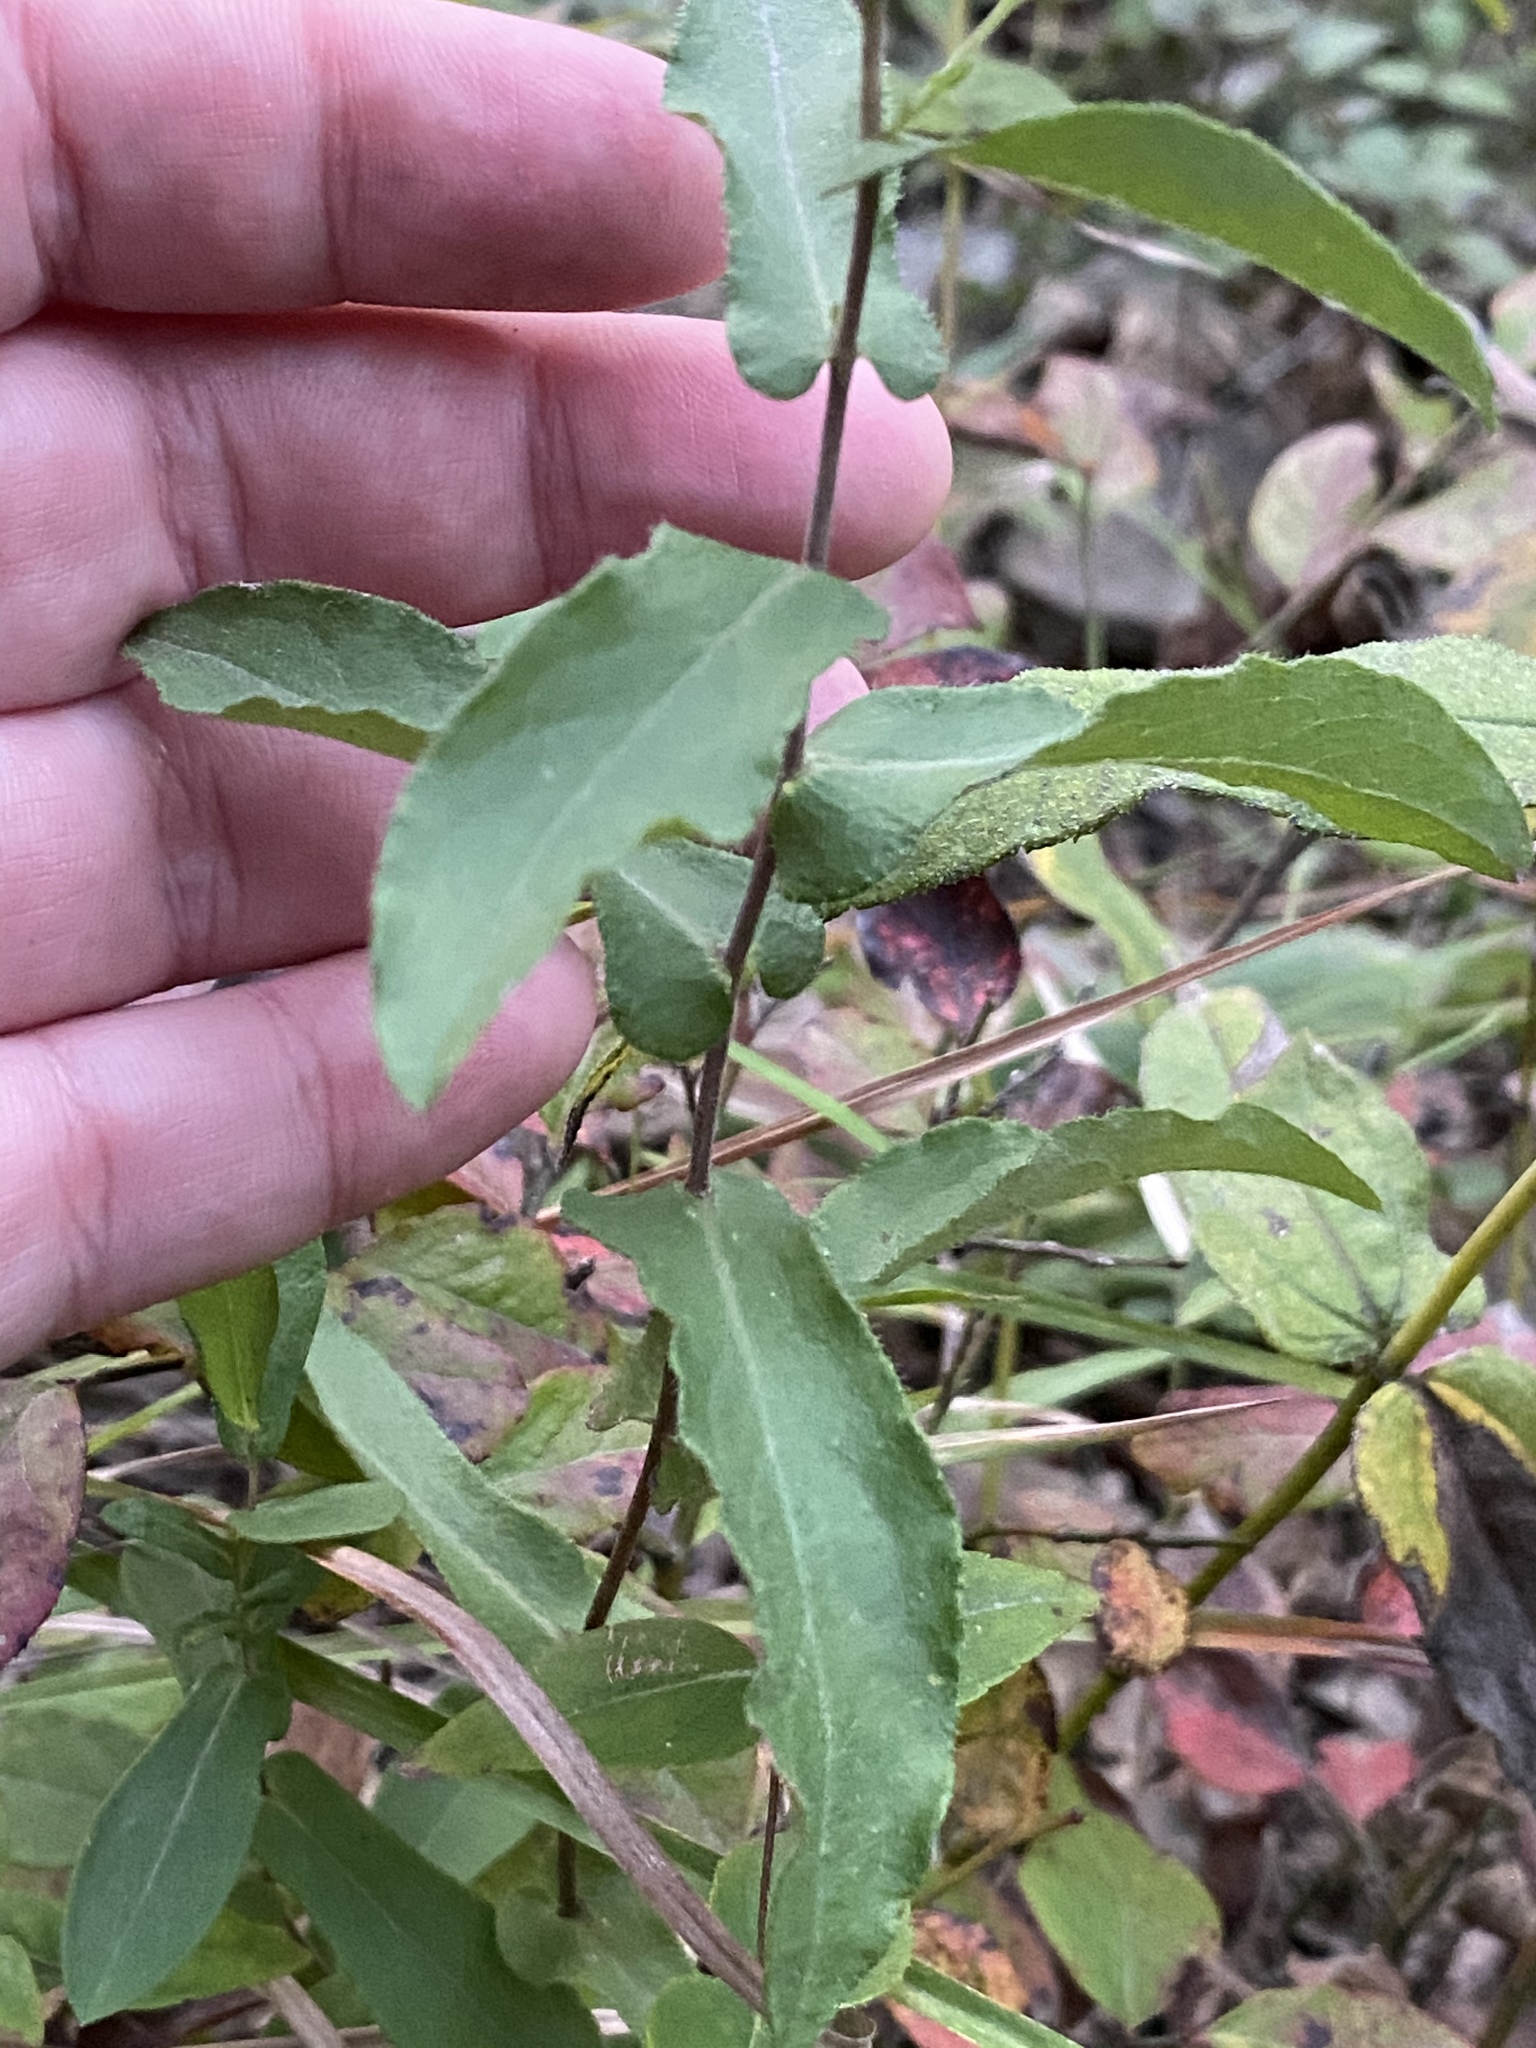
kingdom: Plantae
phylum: Tracheophyta
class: Magnoliopsida
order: Asterales
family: Asteraceae
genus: Symphyotrichum
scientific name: Symphyotrichum patens
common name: Late purple aster
